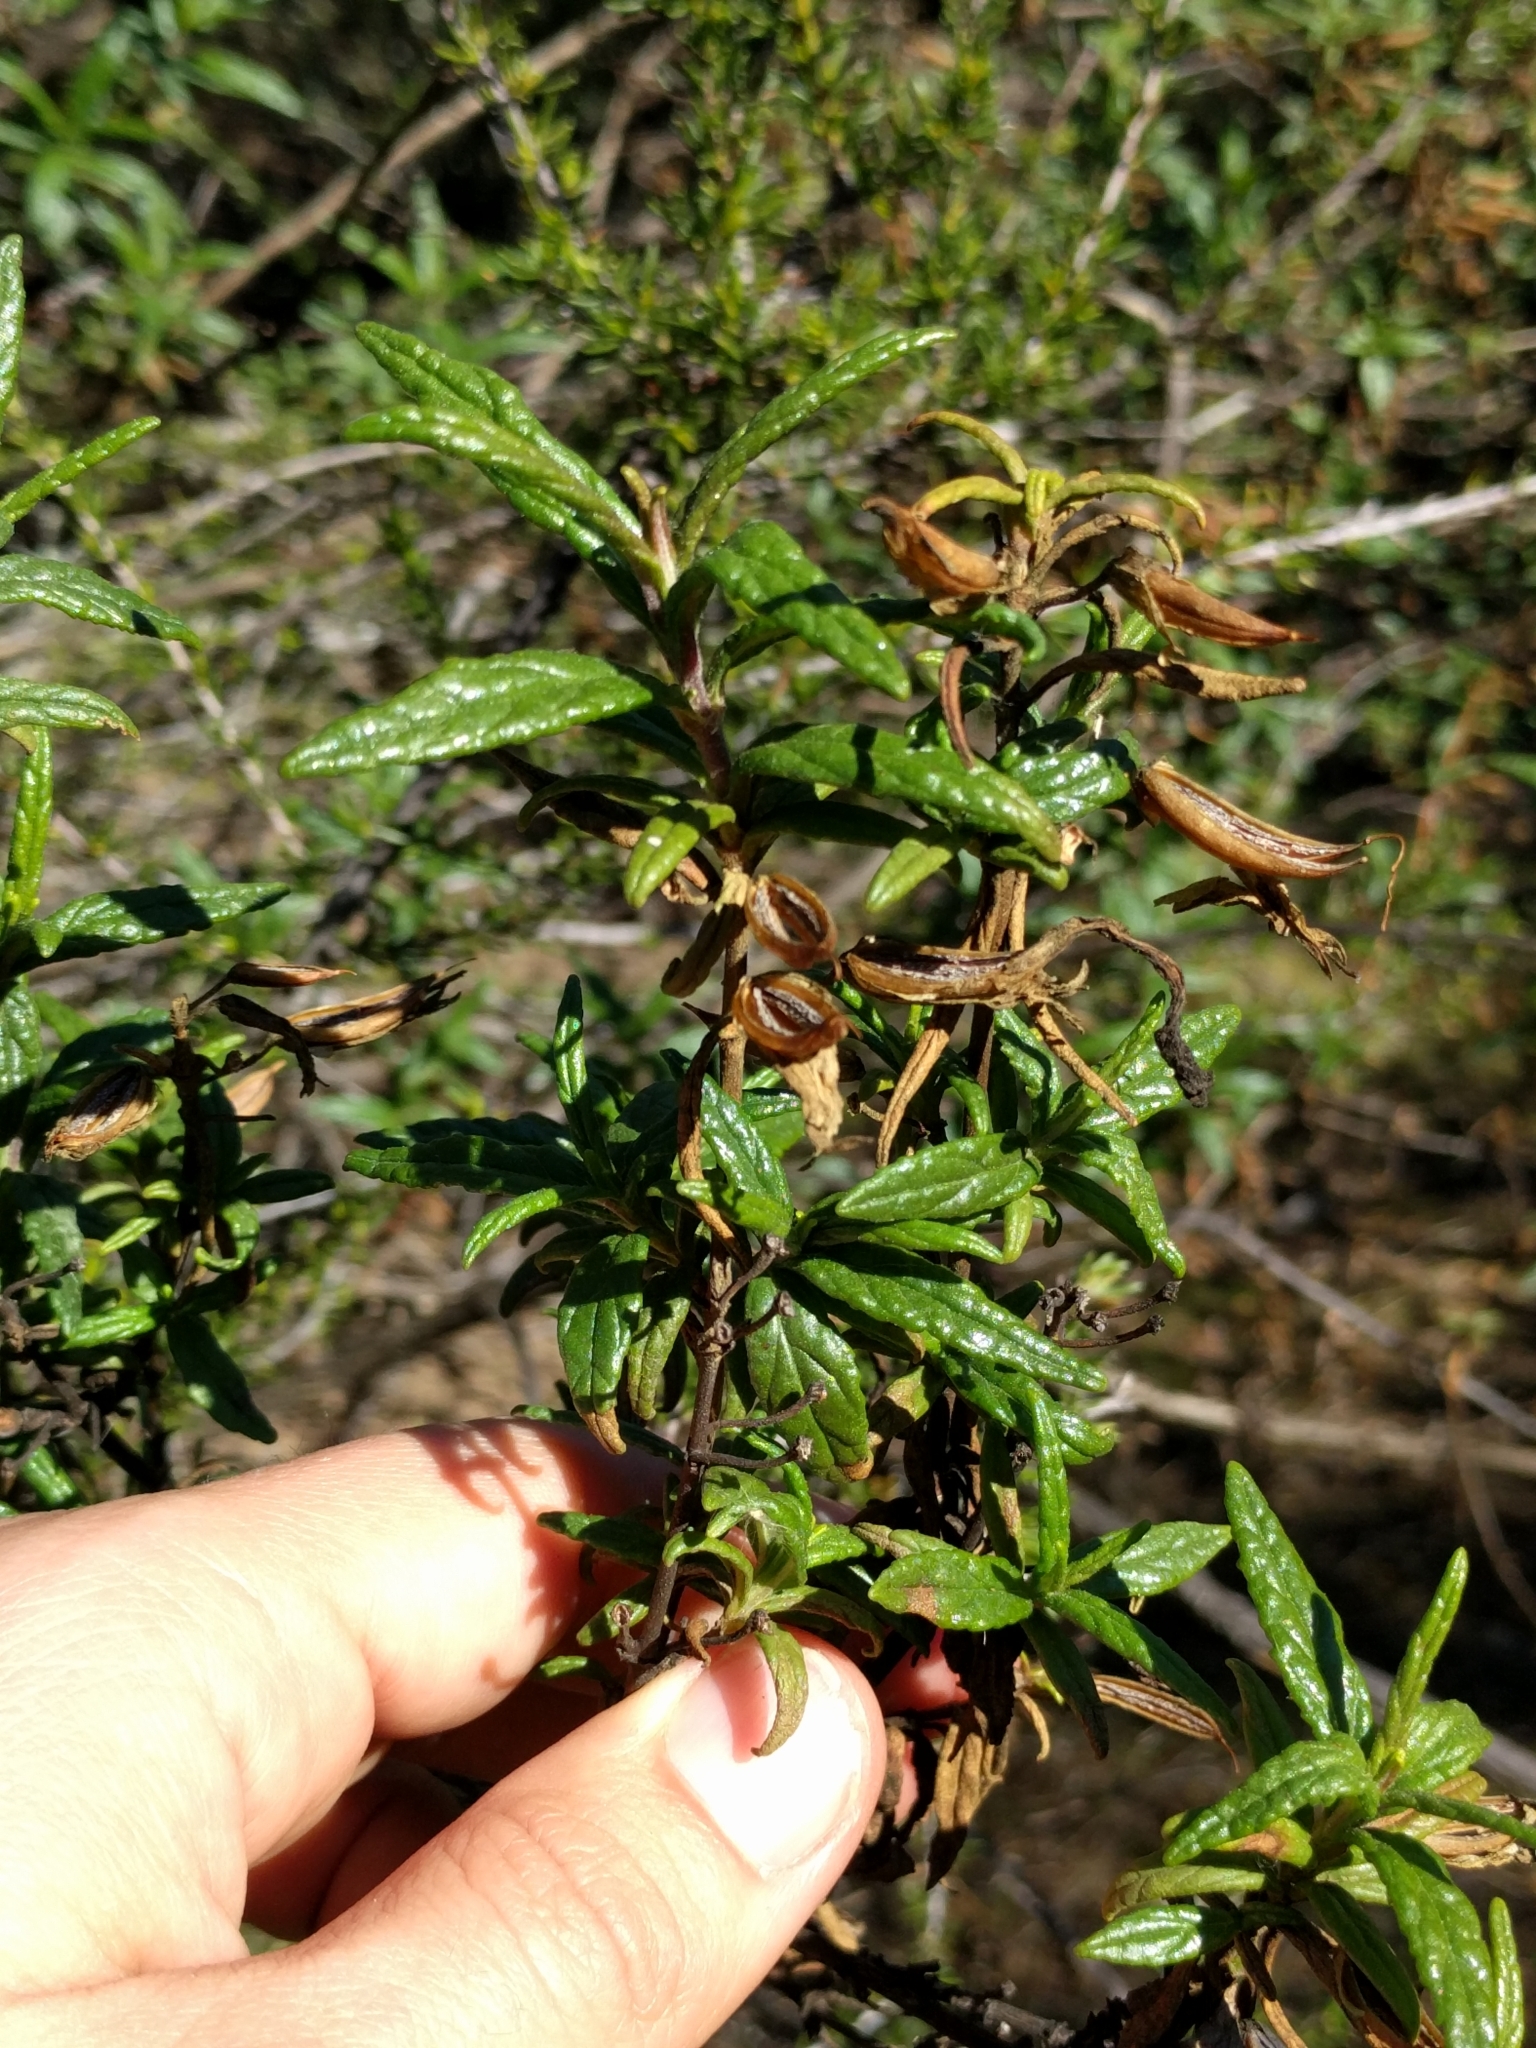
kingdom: Plantae
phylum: Tracheophyta
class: Magnoliopsida
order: Lamiales
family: Phrymaceae
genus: Diplacus
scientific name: Diplacus aurantiacus
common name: Bush monkey-flower
